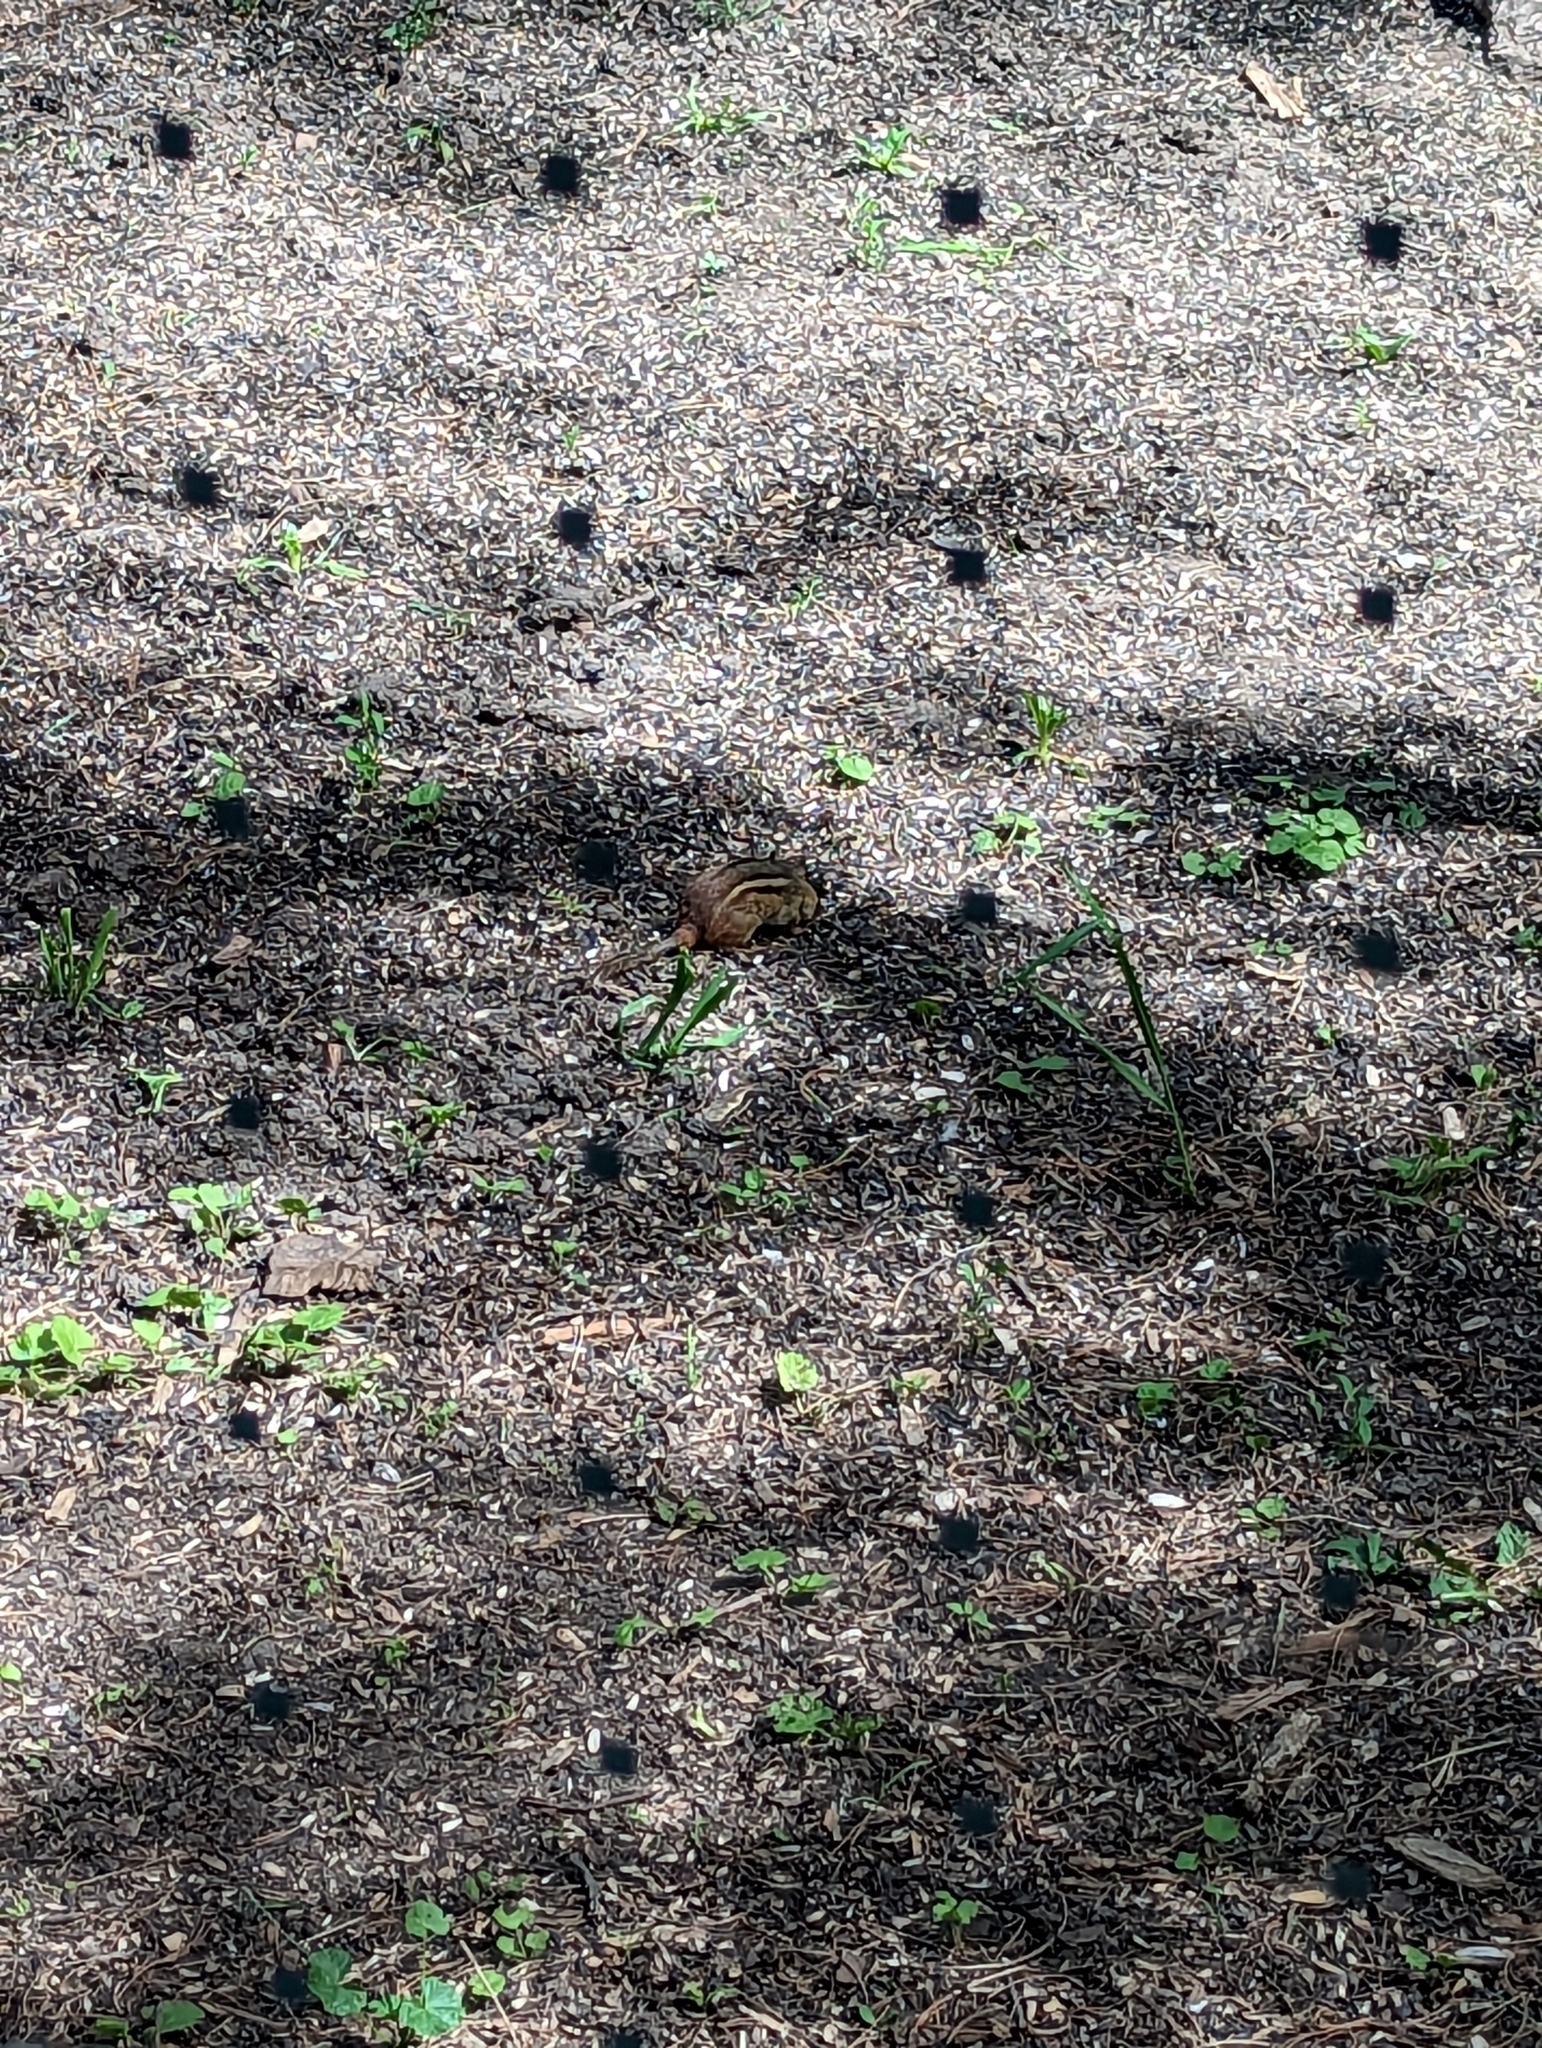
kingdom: Animalia
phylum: Chordata
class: Mammalia
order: Rodentia
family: Sciuridae
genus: Tamias
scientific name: Tamias striatus
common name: Eastern chipmunk
